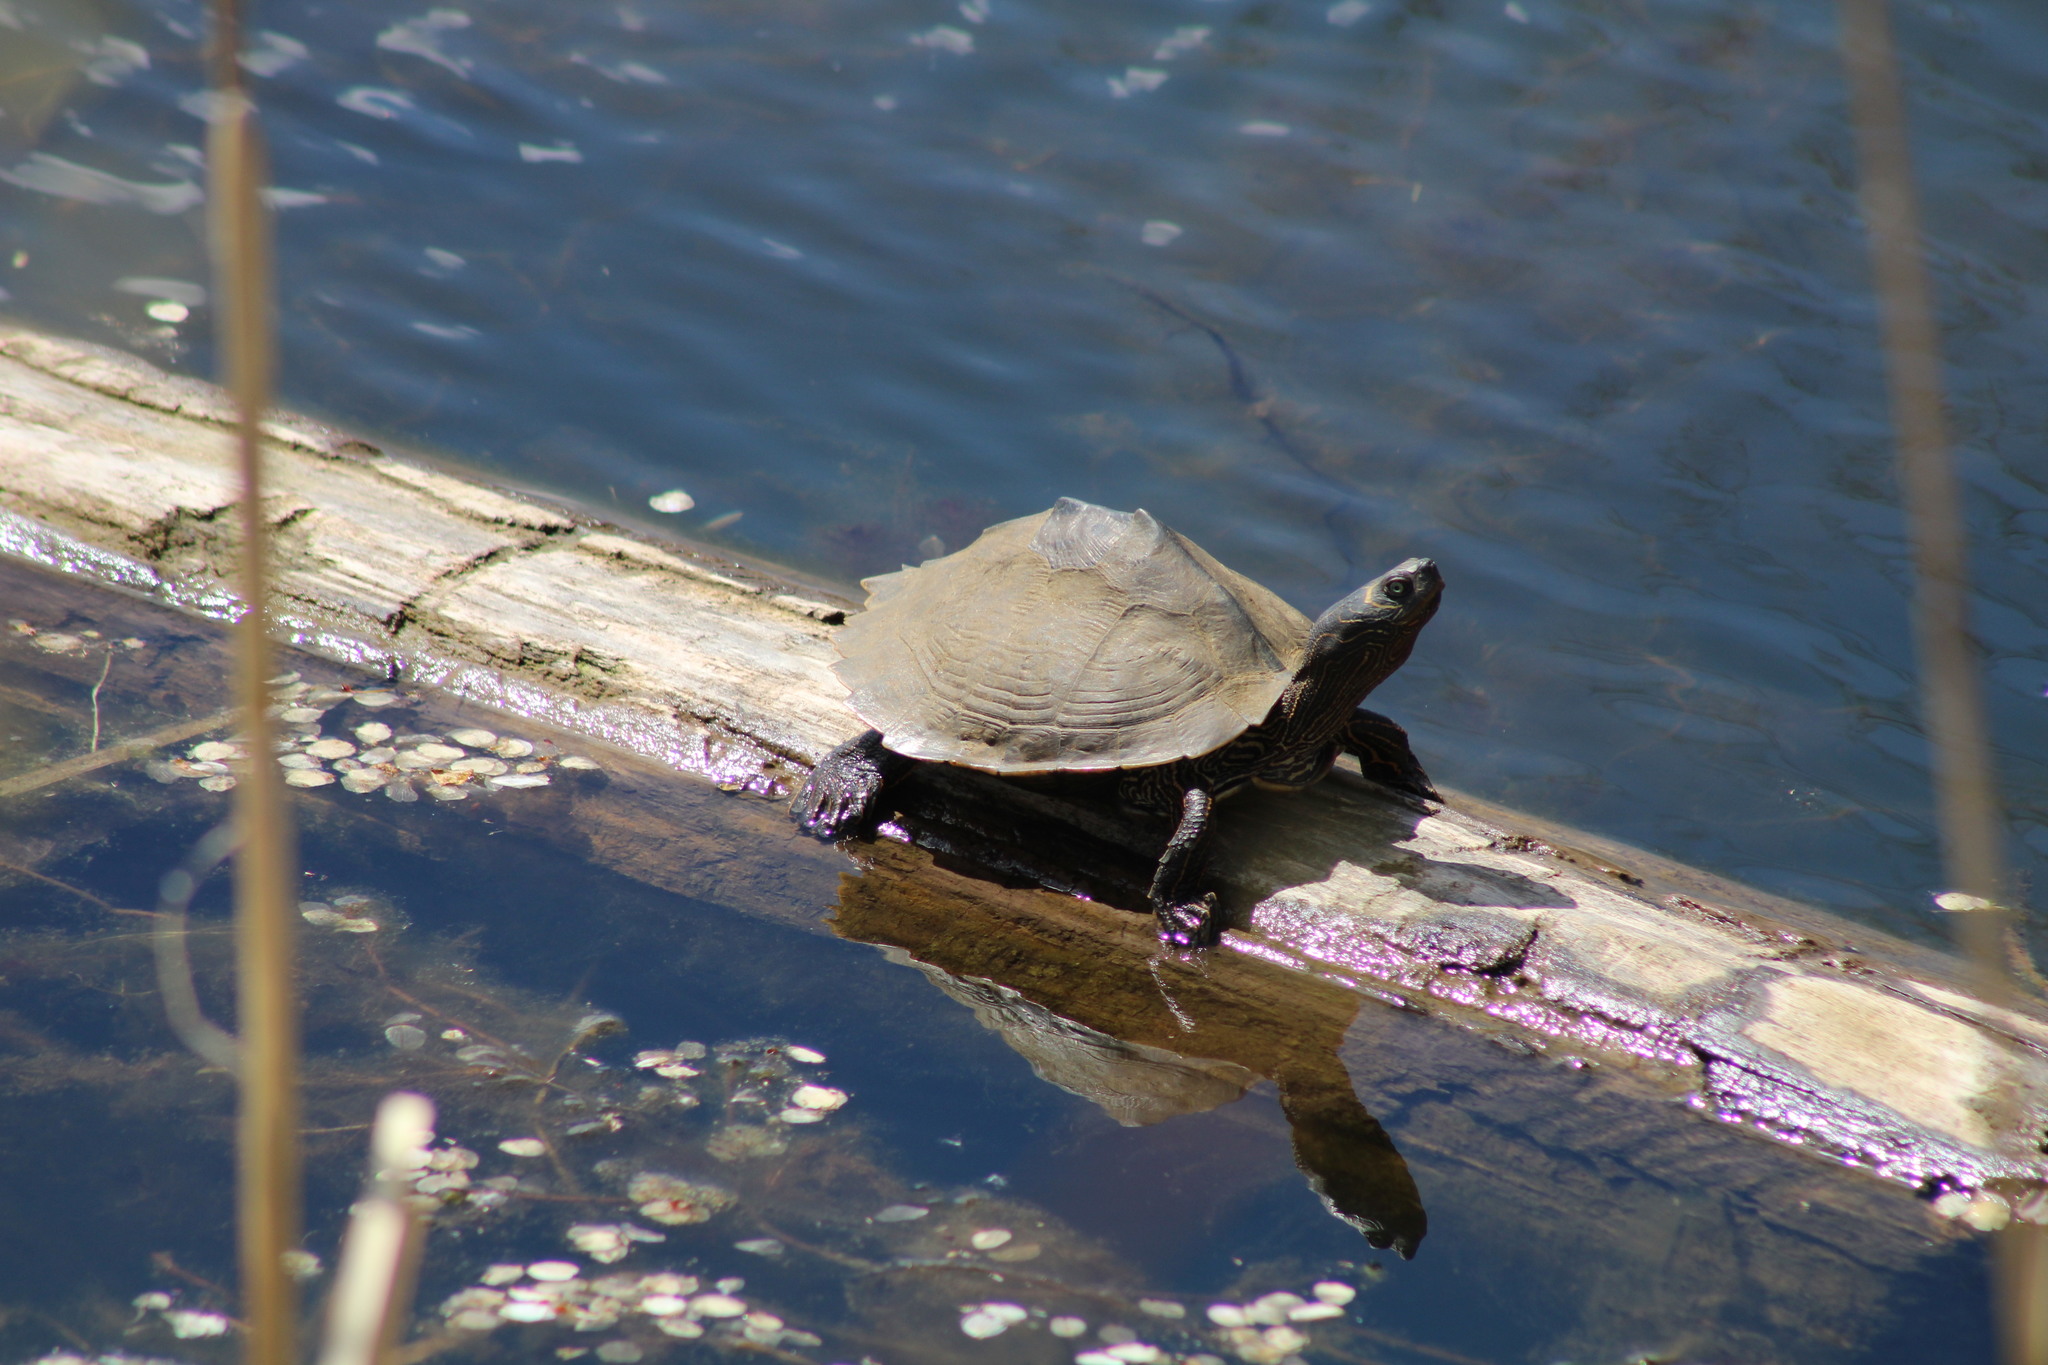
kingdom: Animalia
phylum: Chordata
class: Testudines
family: Emydidae
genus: Graptemys
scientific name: Graptemys pseudogeographica
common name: False map turtle
